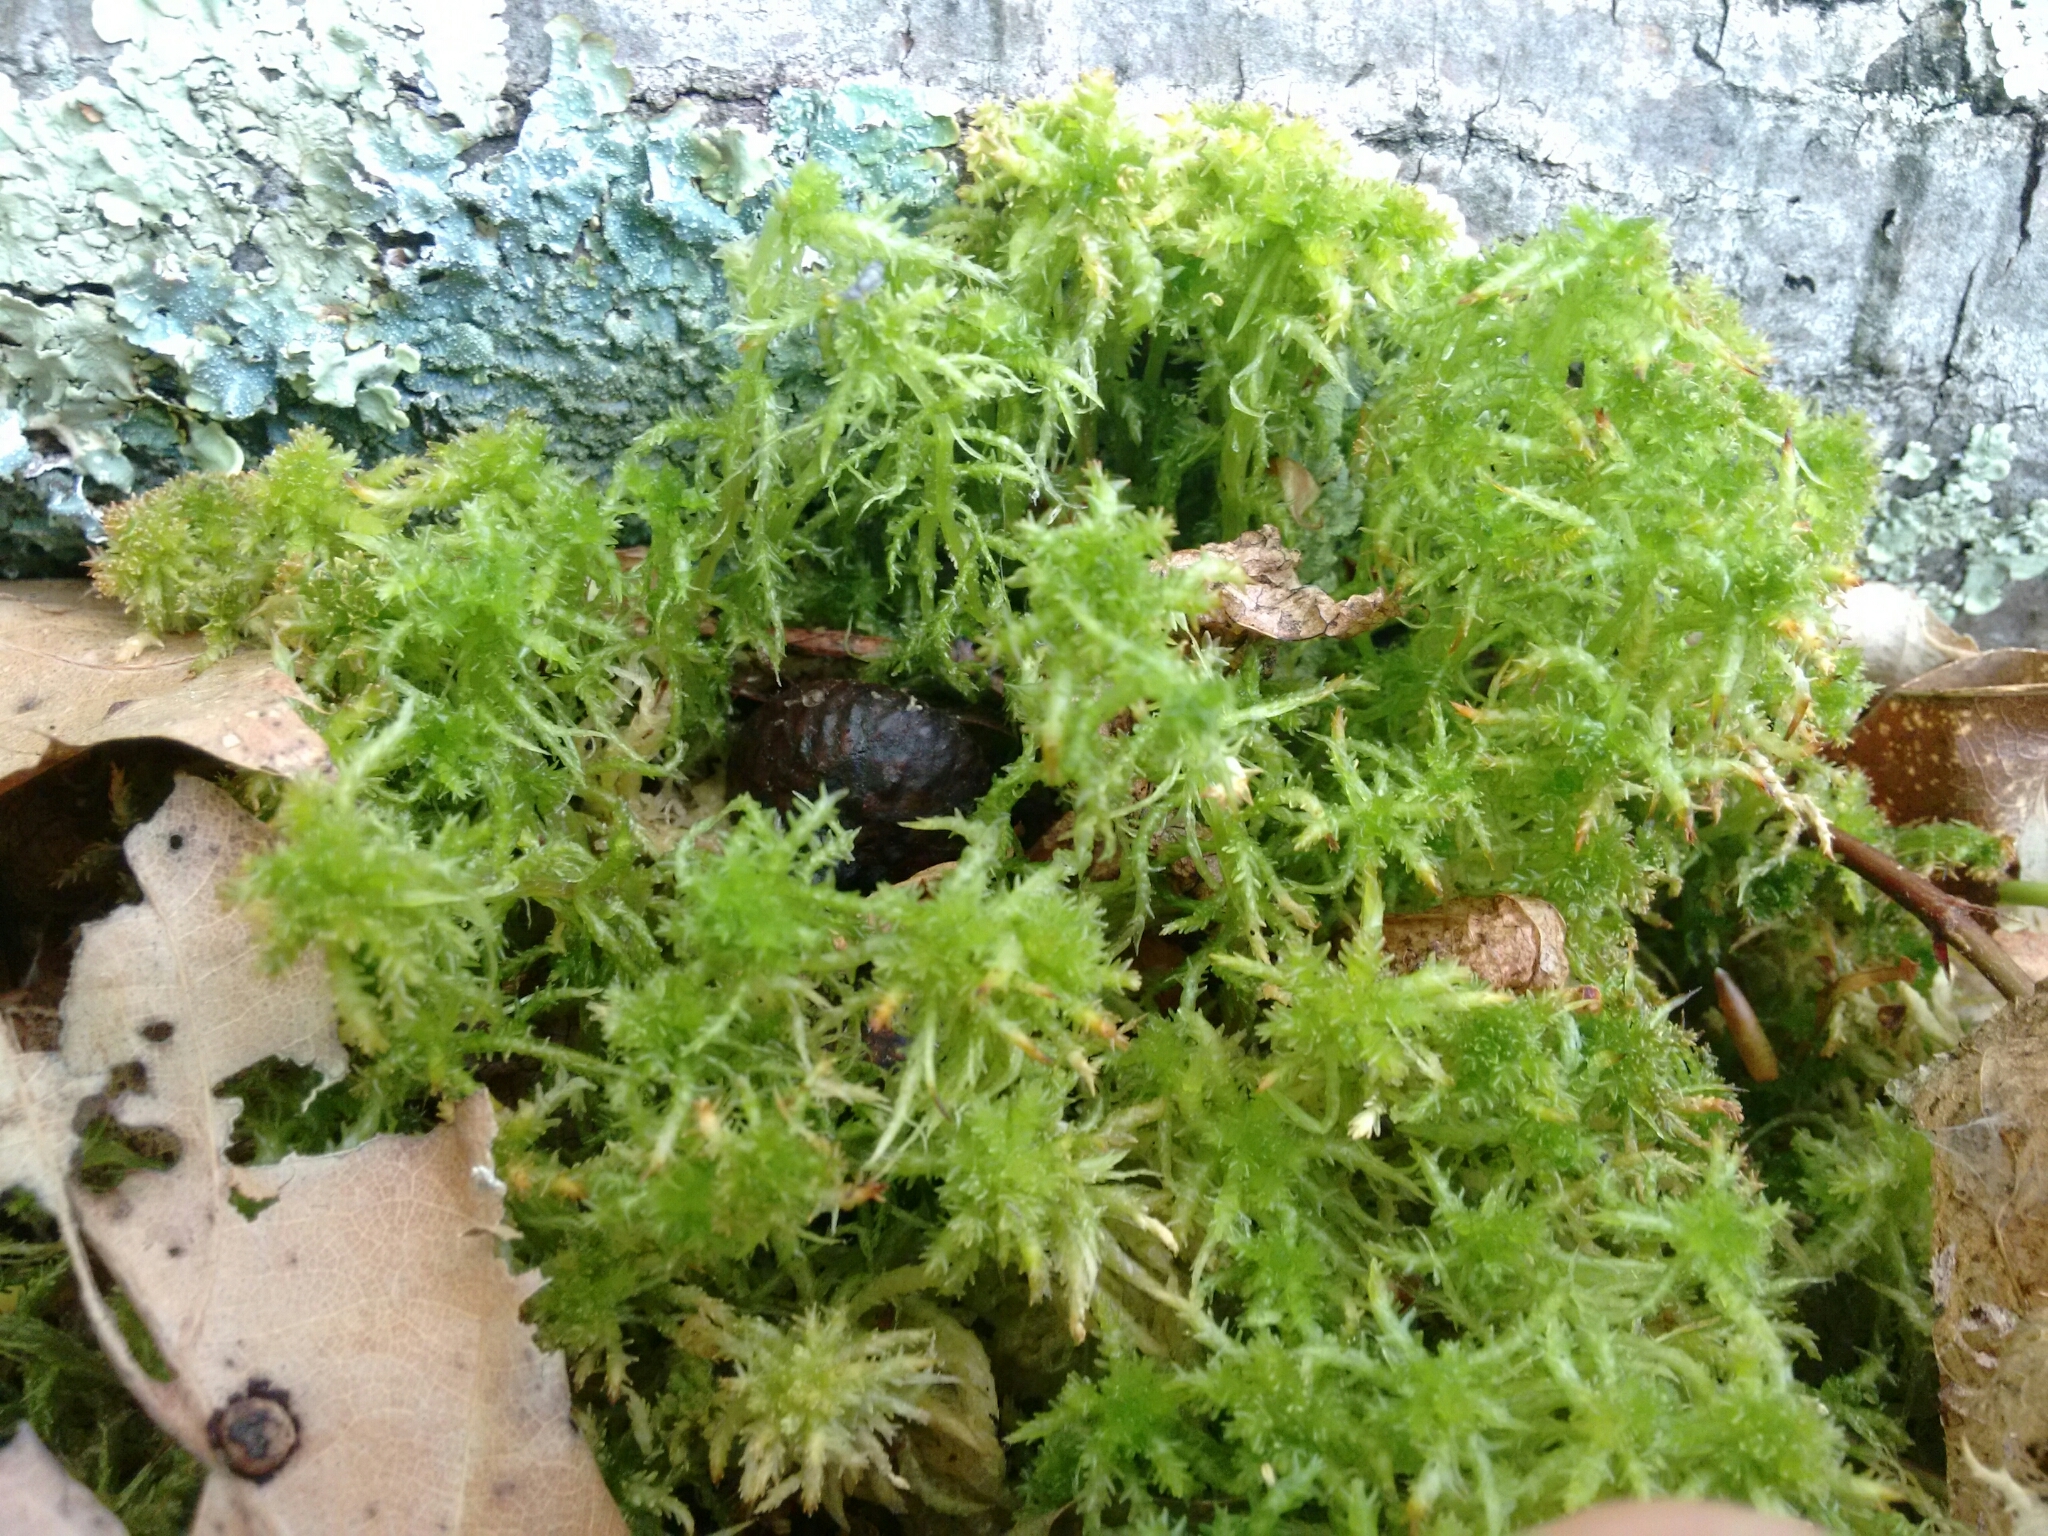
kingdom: Plantae
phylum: Bryophyta
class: Sphagnopsida
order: Sphagnales
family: Sphagnaceae
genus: Sphagnum
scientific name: Sphagnum squarrosum
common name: Shaggy peat moss
